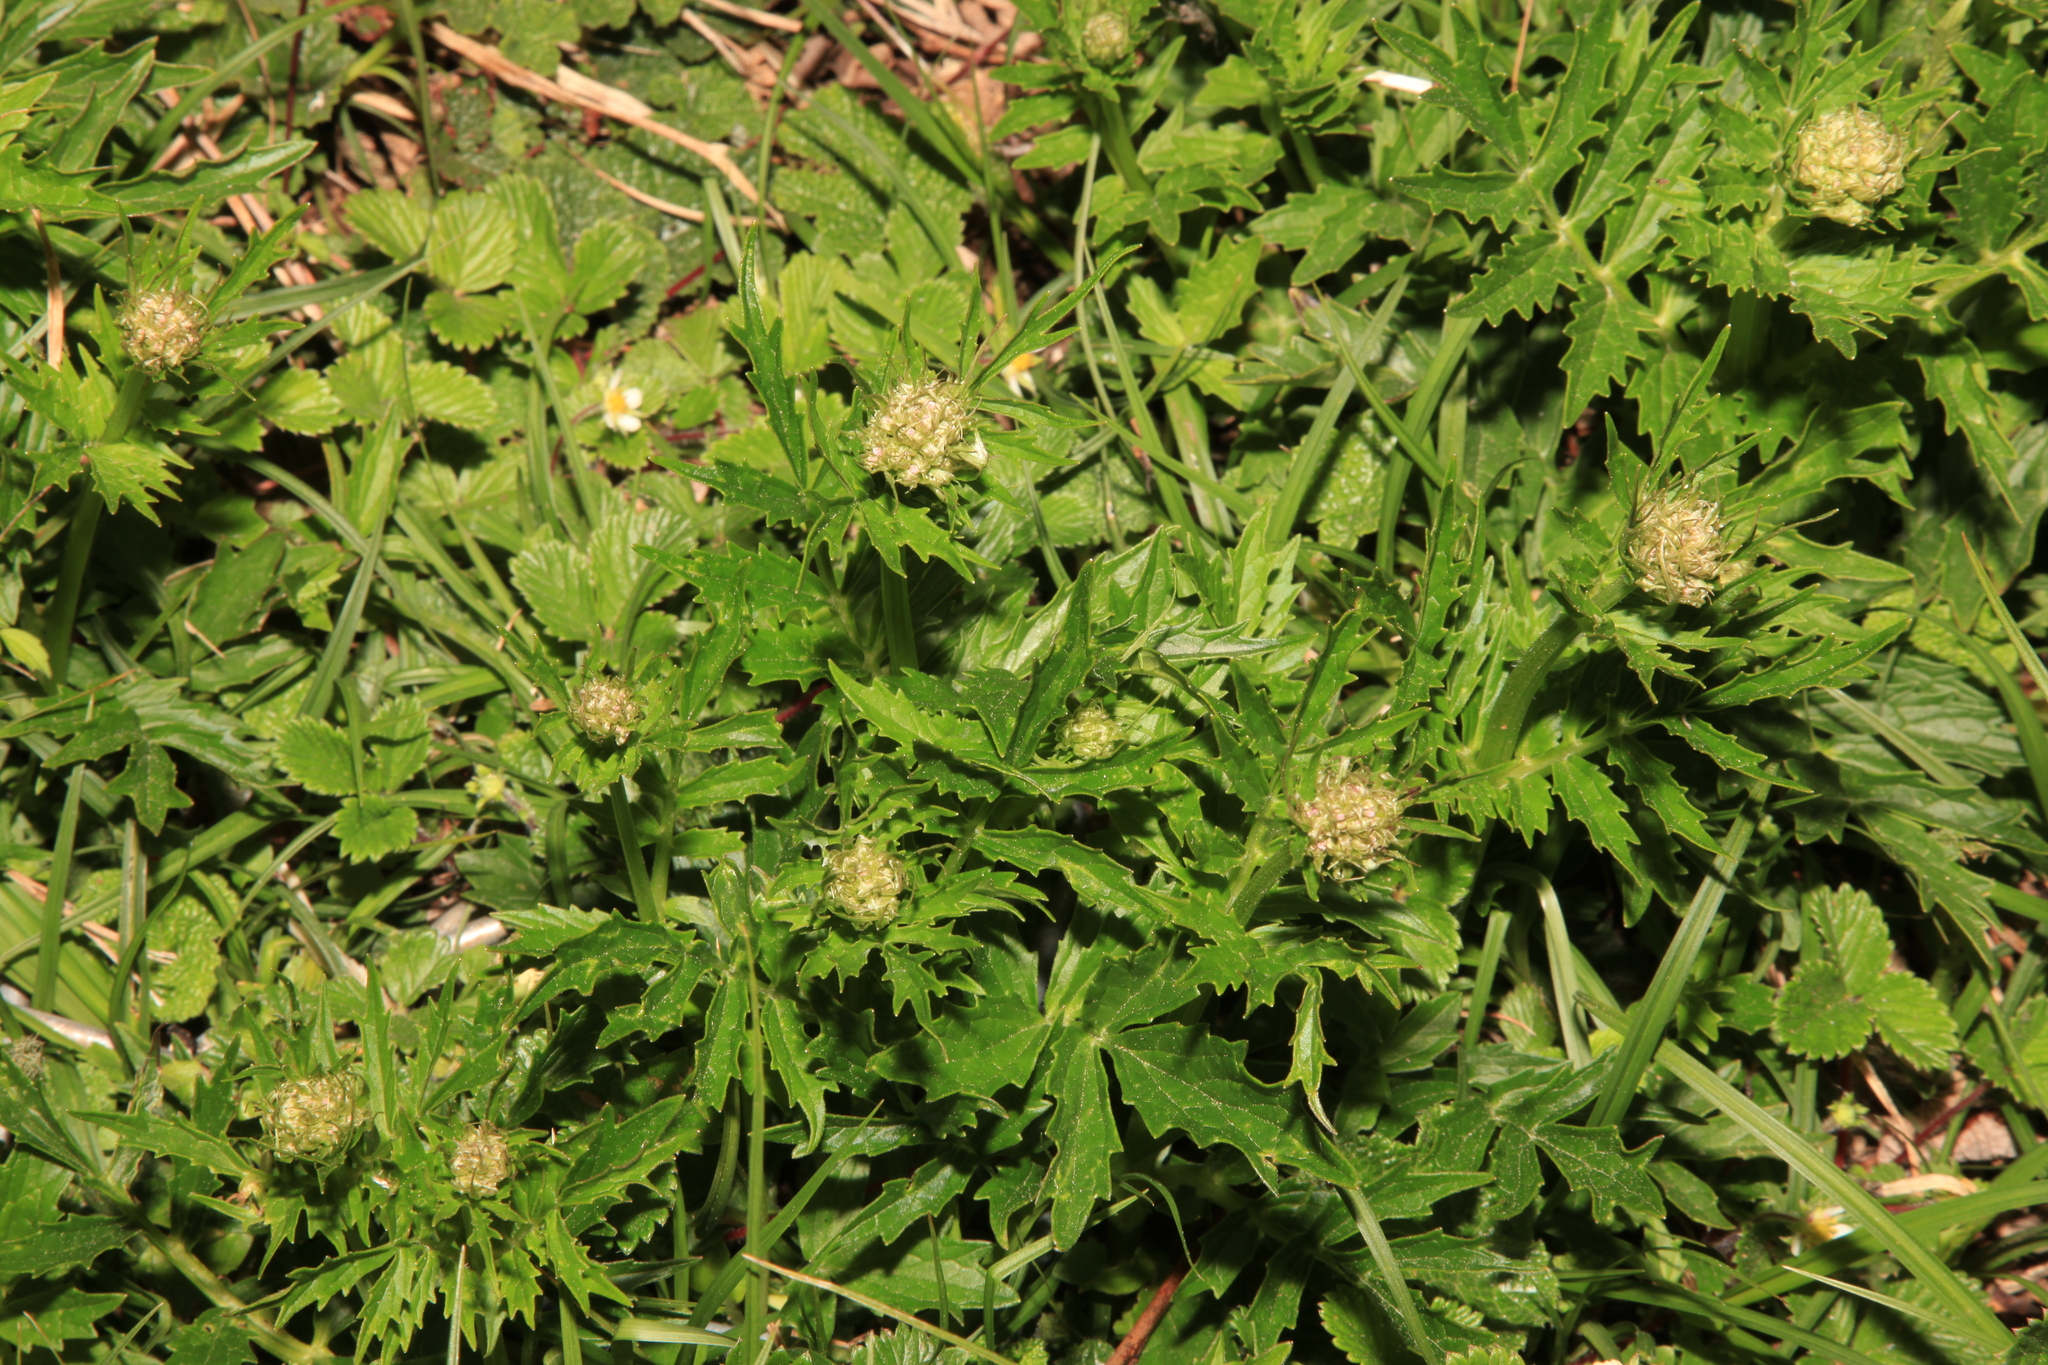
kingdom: Plantae
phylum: Tracheophyta
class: Magnoliopsida
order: Dipsacales
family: Caprifoliaceae
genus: Valeriana
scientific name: Valeriana officinalis
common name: Common valerian
